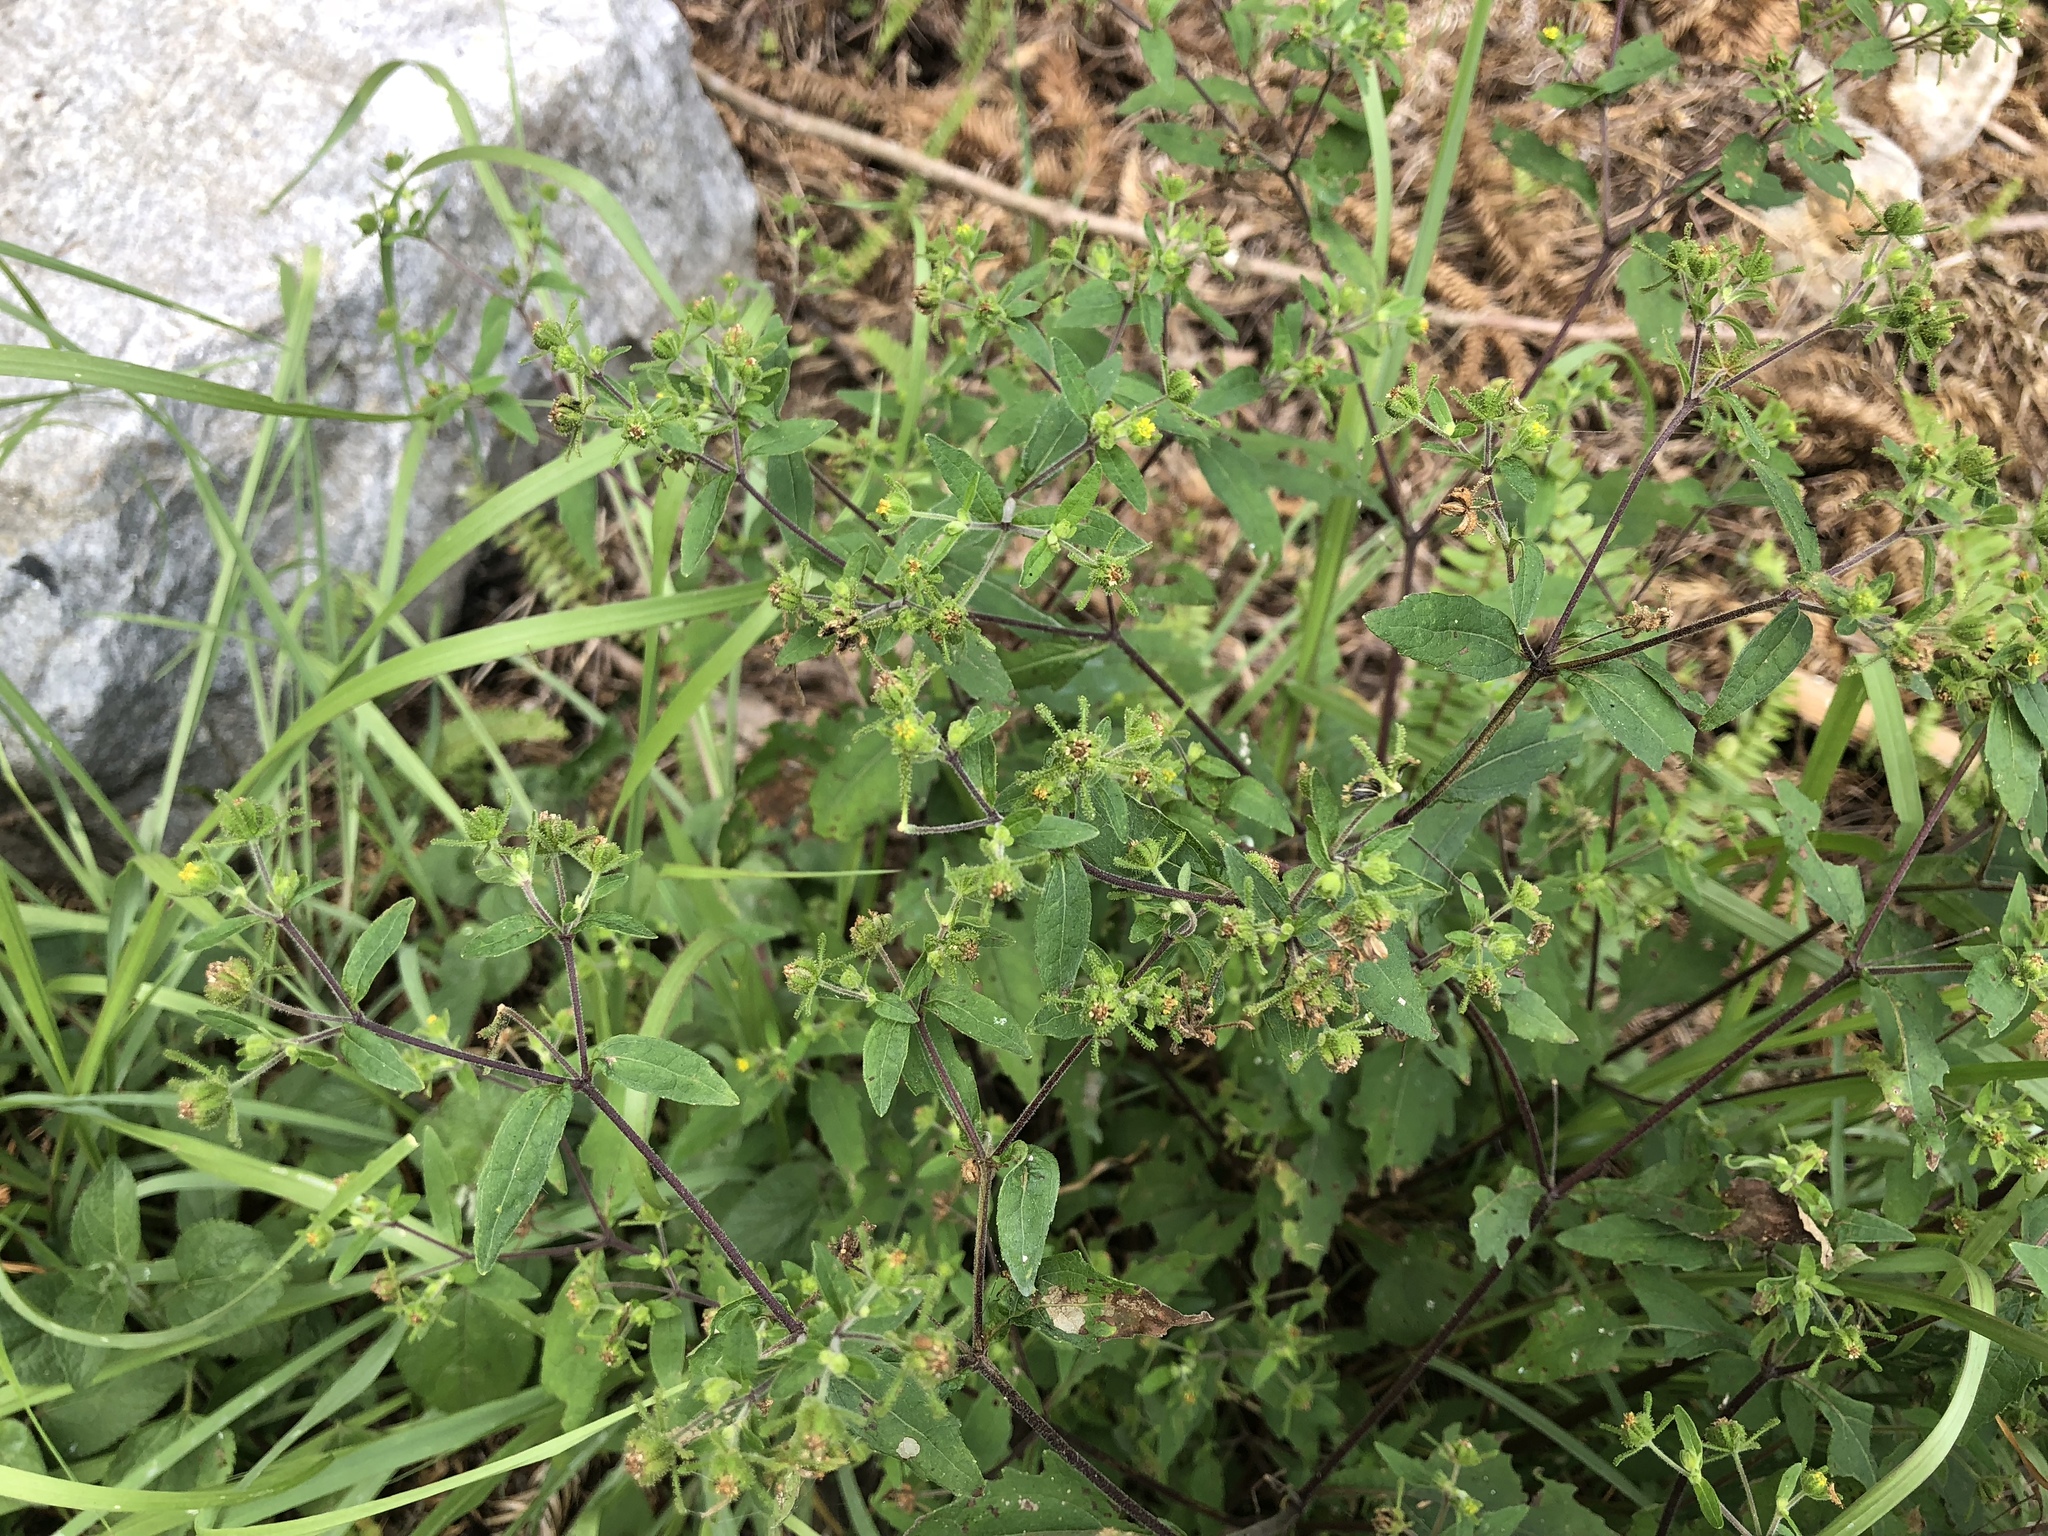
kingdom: Plantae
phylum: Tracheophyta
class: Magnoliopsida
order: Asterales
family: Asteraceae
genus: Sigesbeckia
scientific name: Sigesbeckia orientalis
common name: Eastern st paul's-wort
